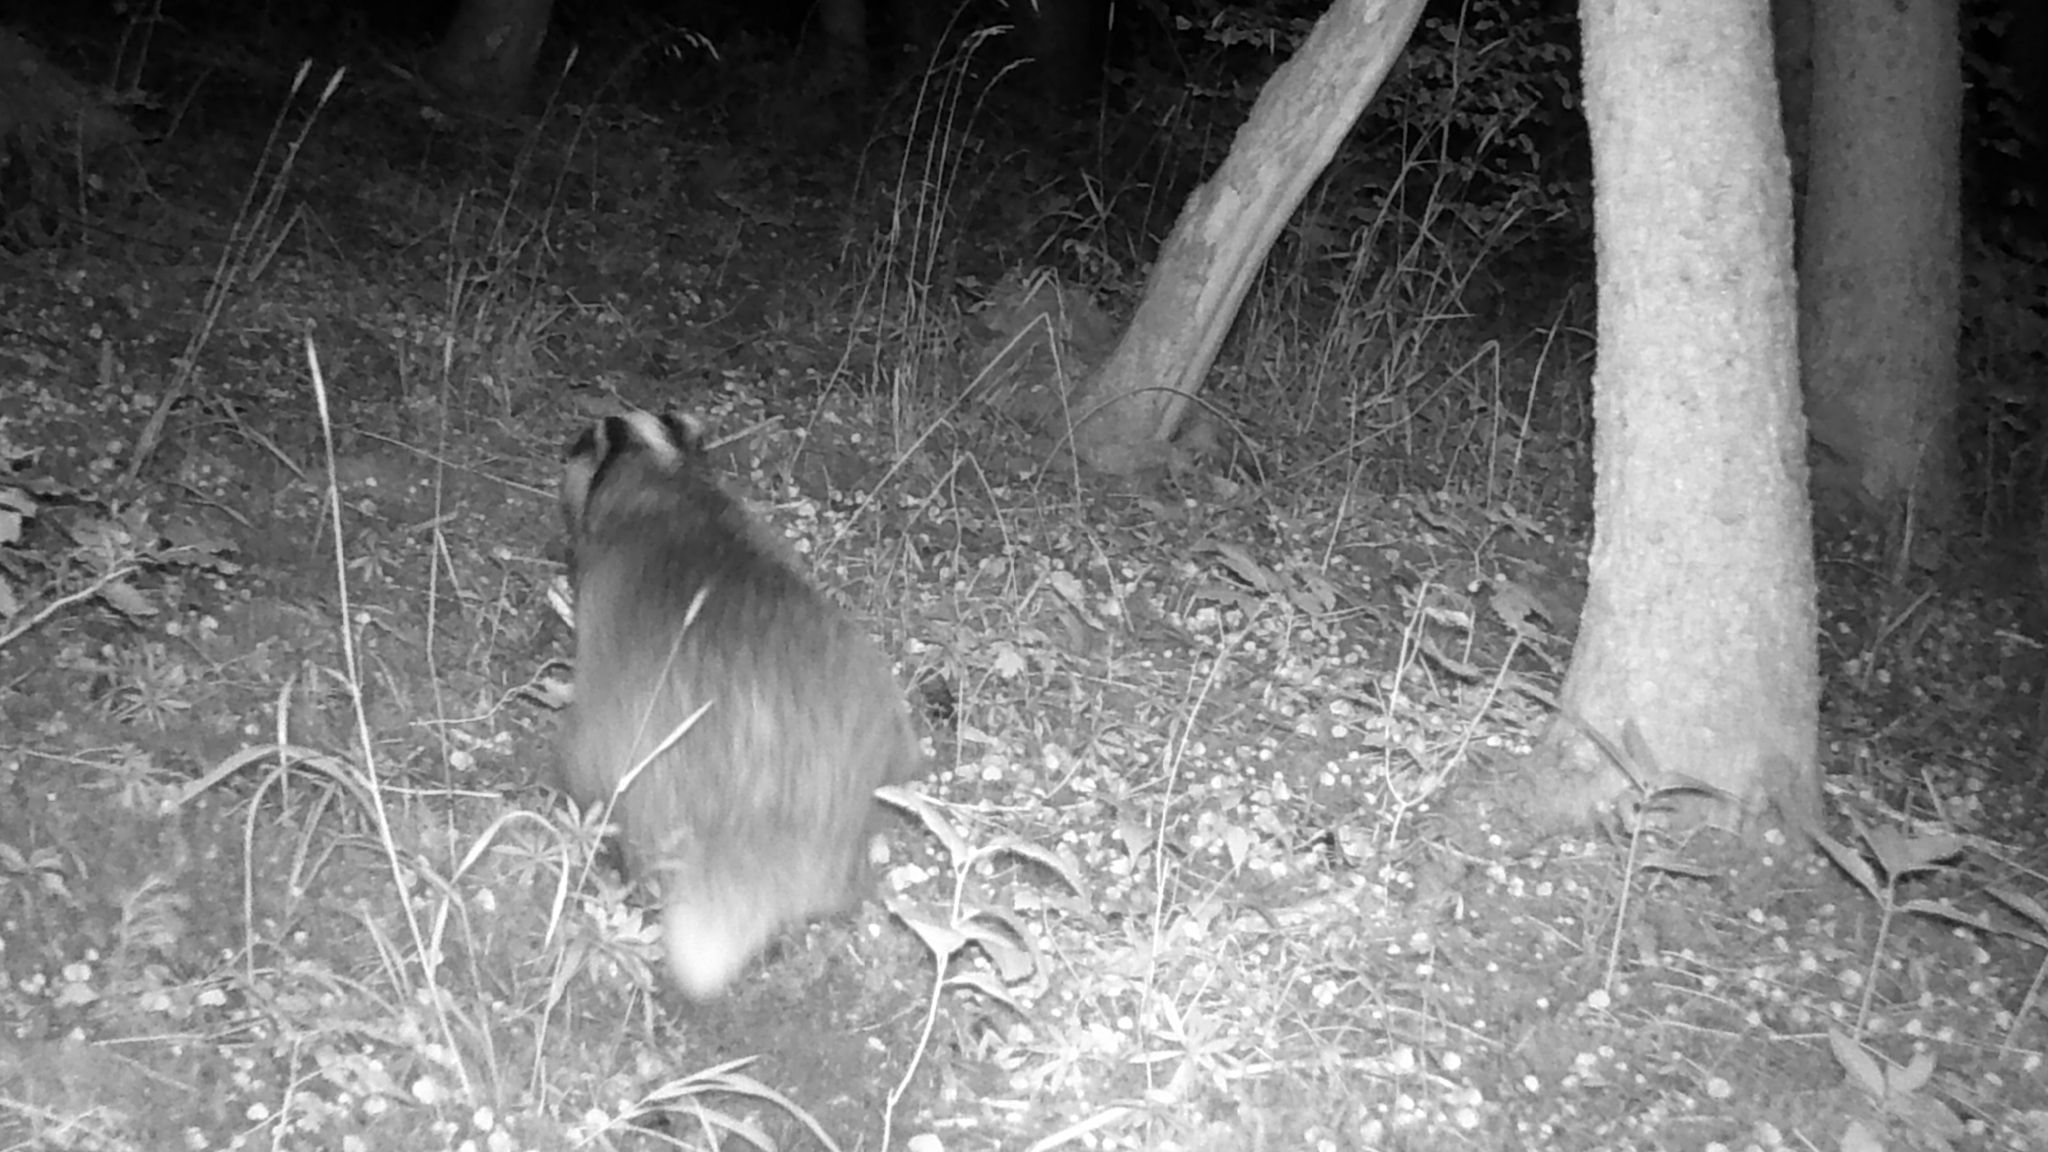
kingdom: Animalia
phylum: Chordata
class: Mammalia
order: Carnivora
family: Mustelidae
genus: Meles
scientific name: Meles meles
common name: Eurasian badger
